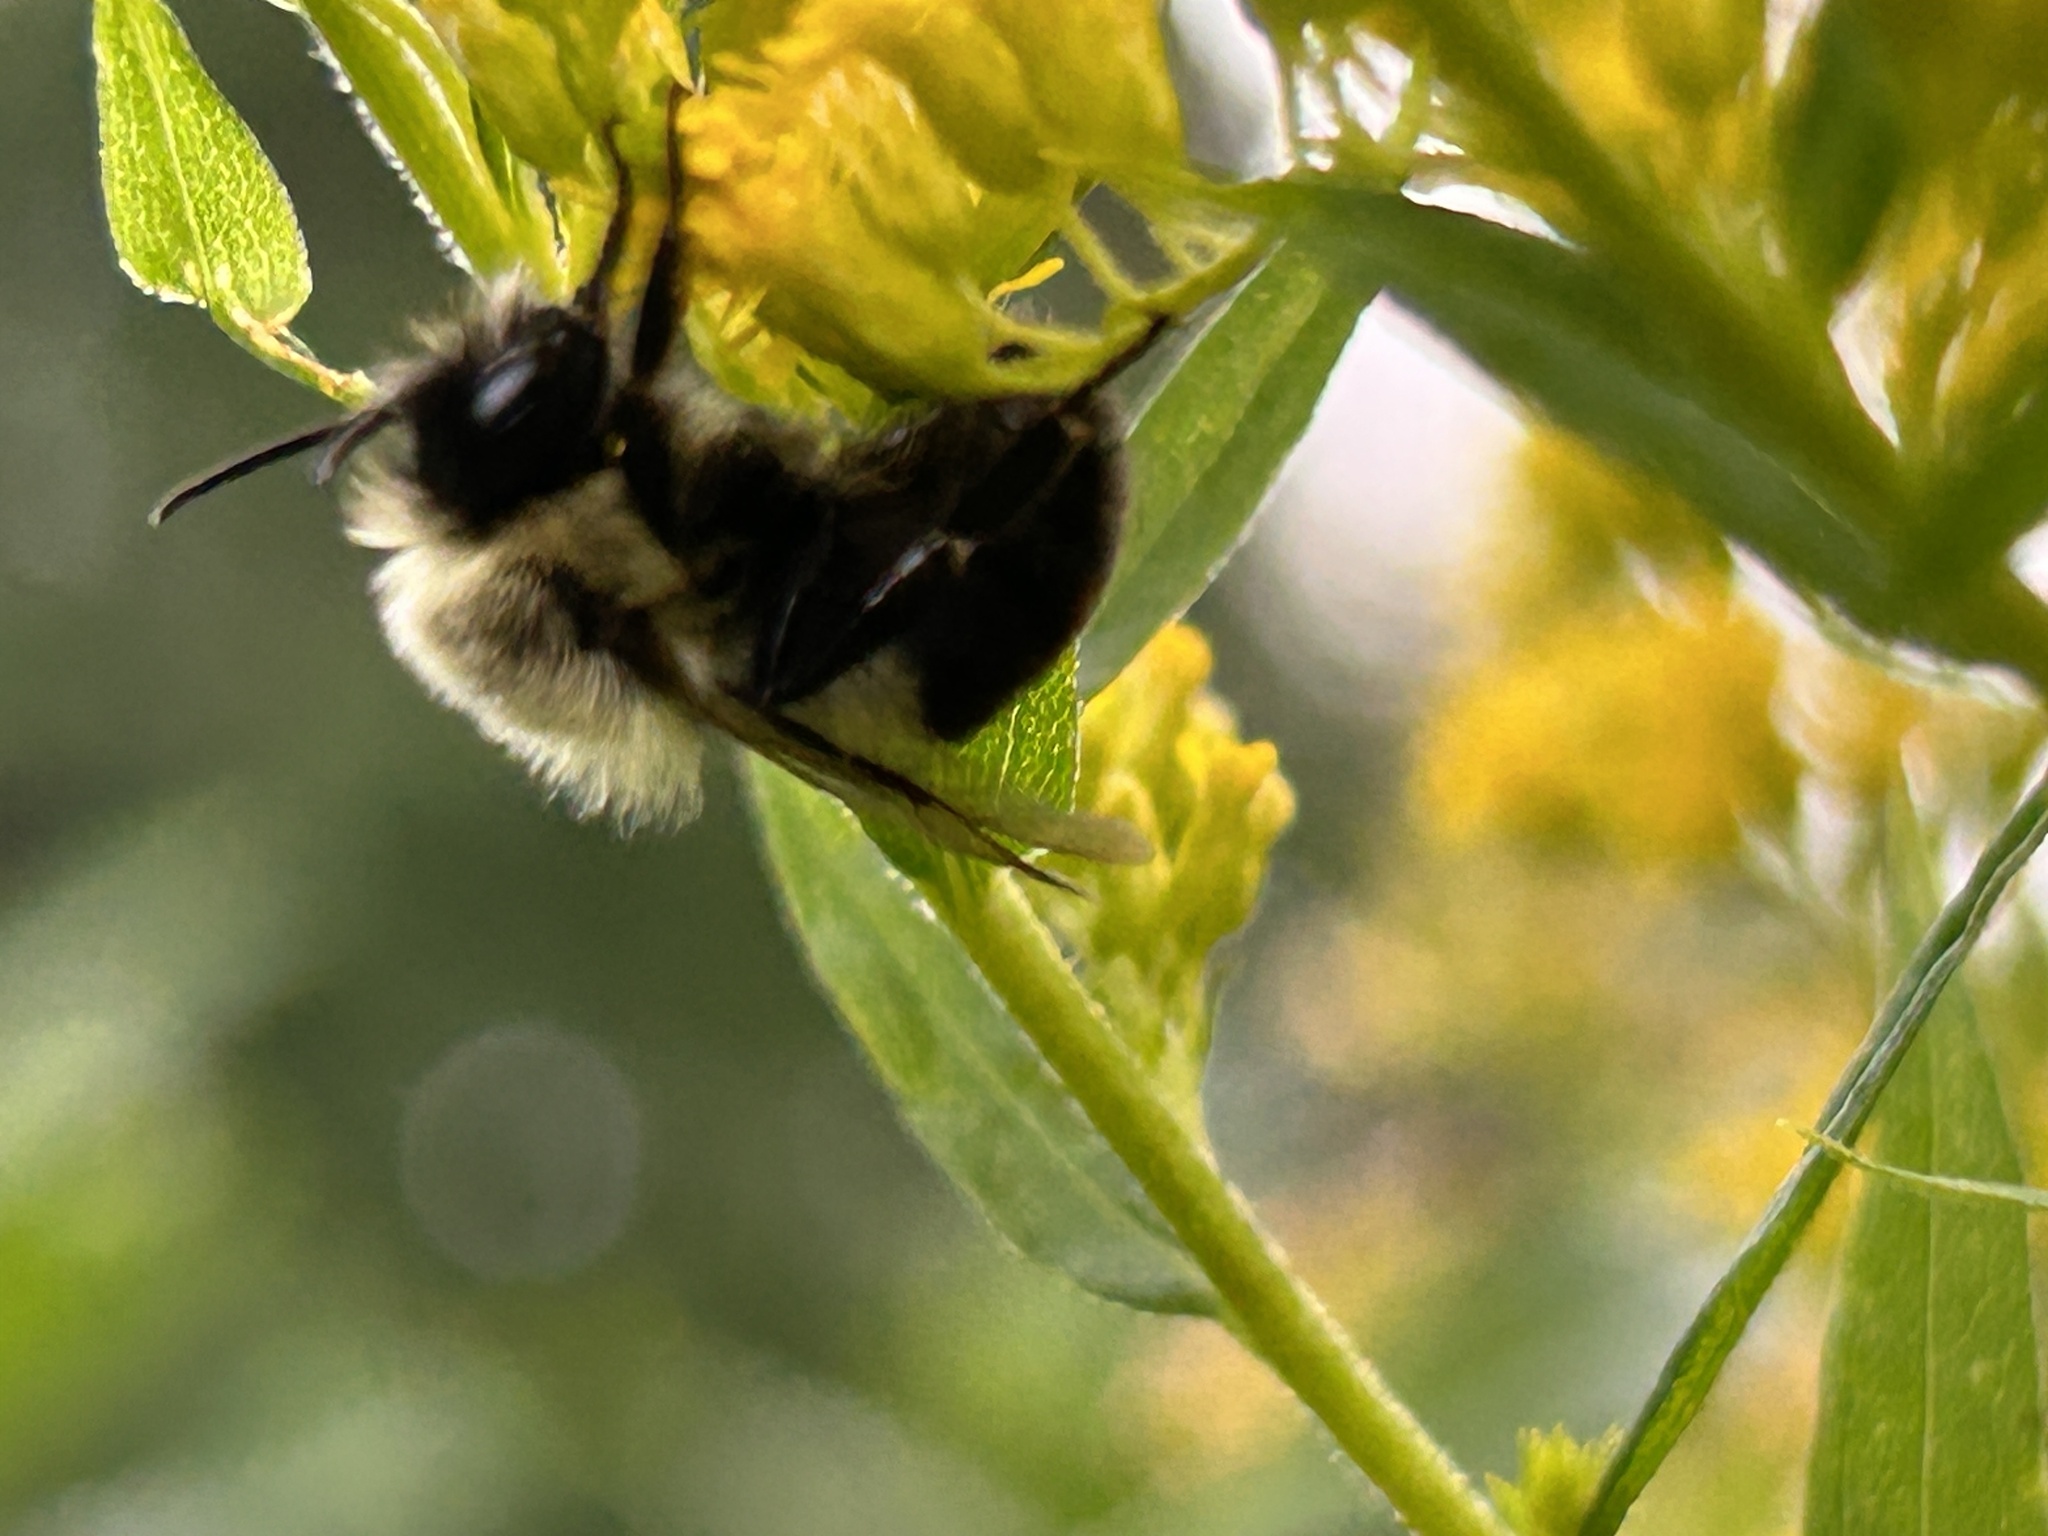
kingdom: Animalia
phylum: Arthropoda
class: Insecta
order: Hymenoptera
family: Apidae
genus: Bombus
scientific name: Bombus impatiens
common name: Common eastern bumble bee
